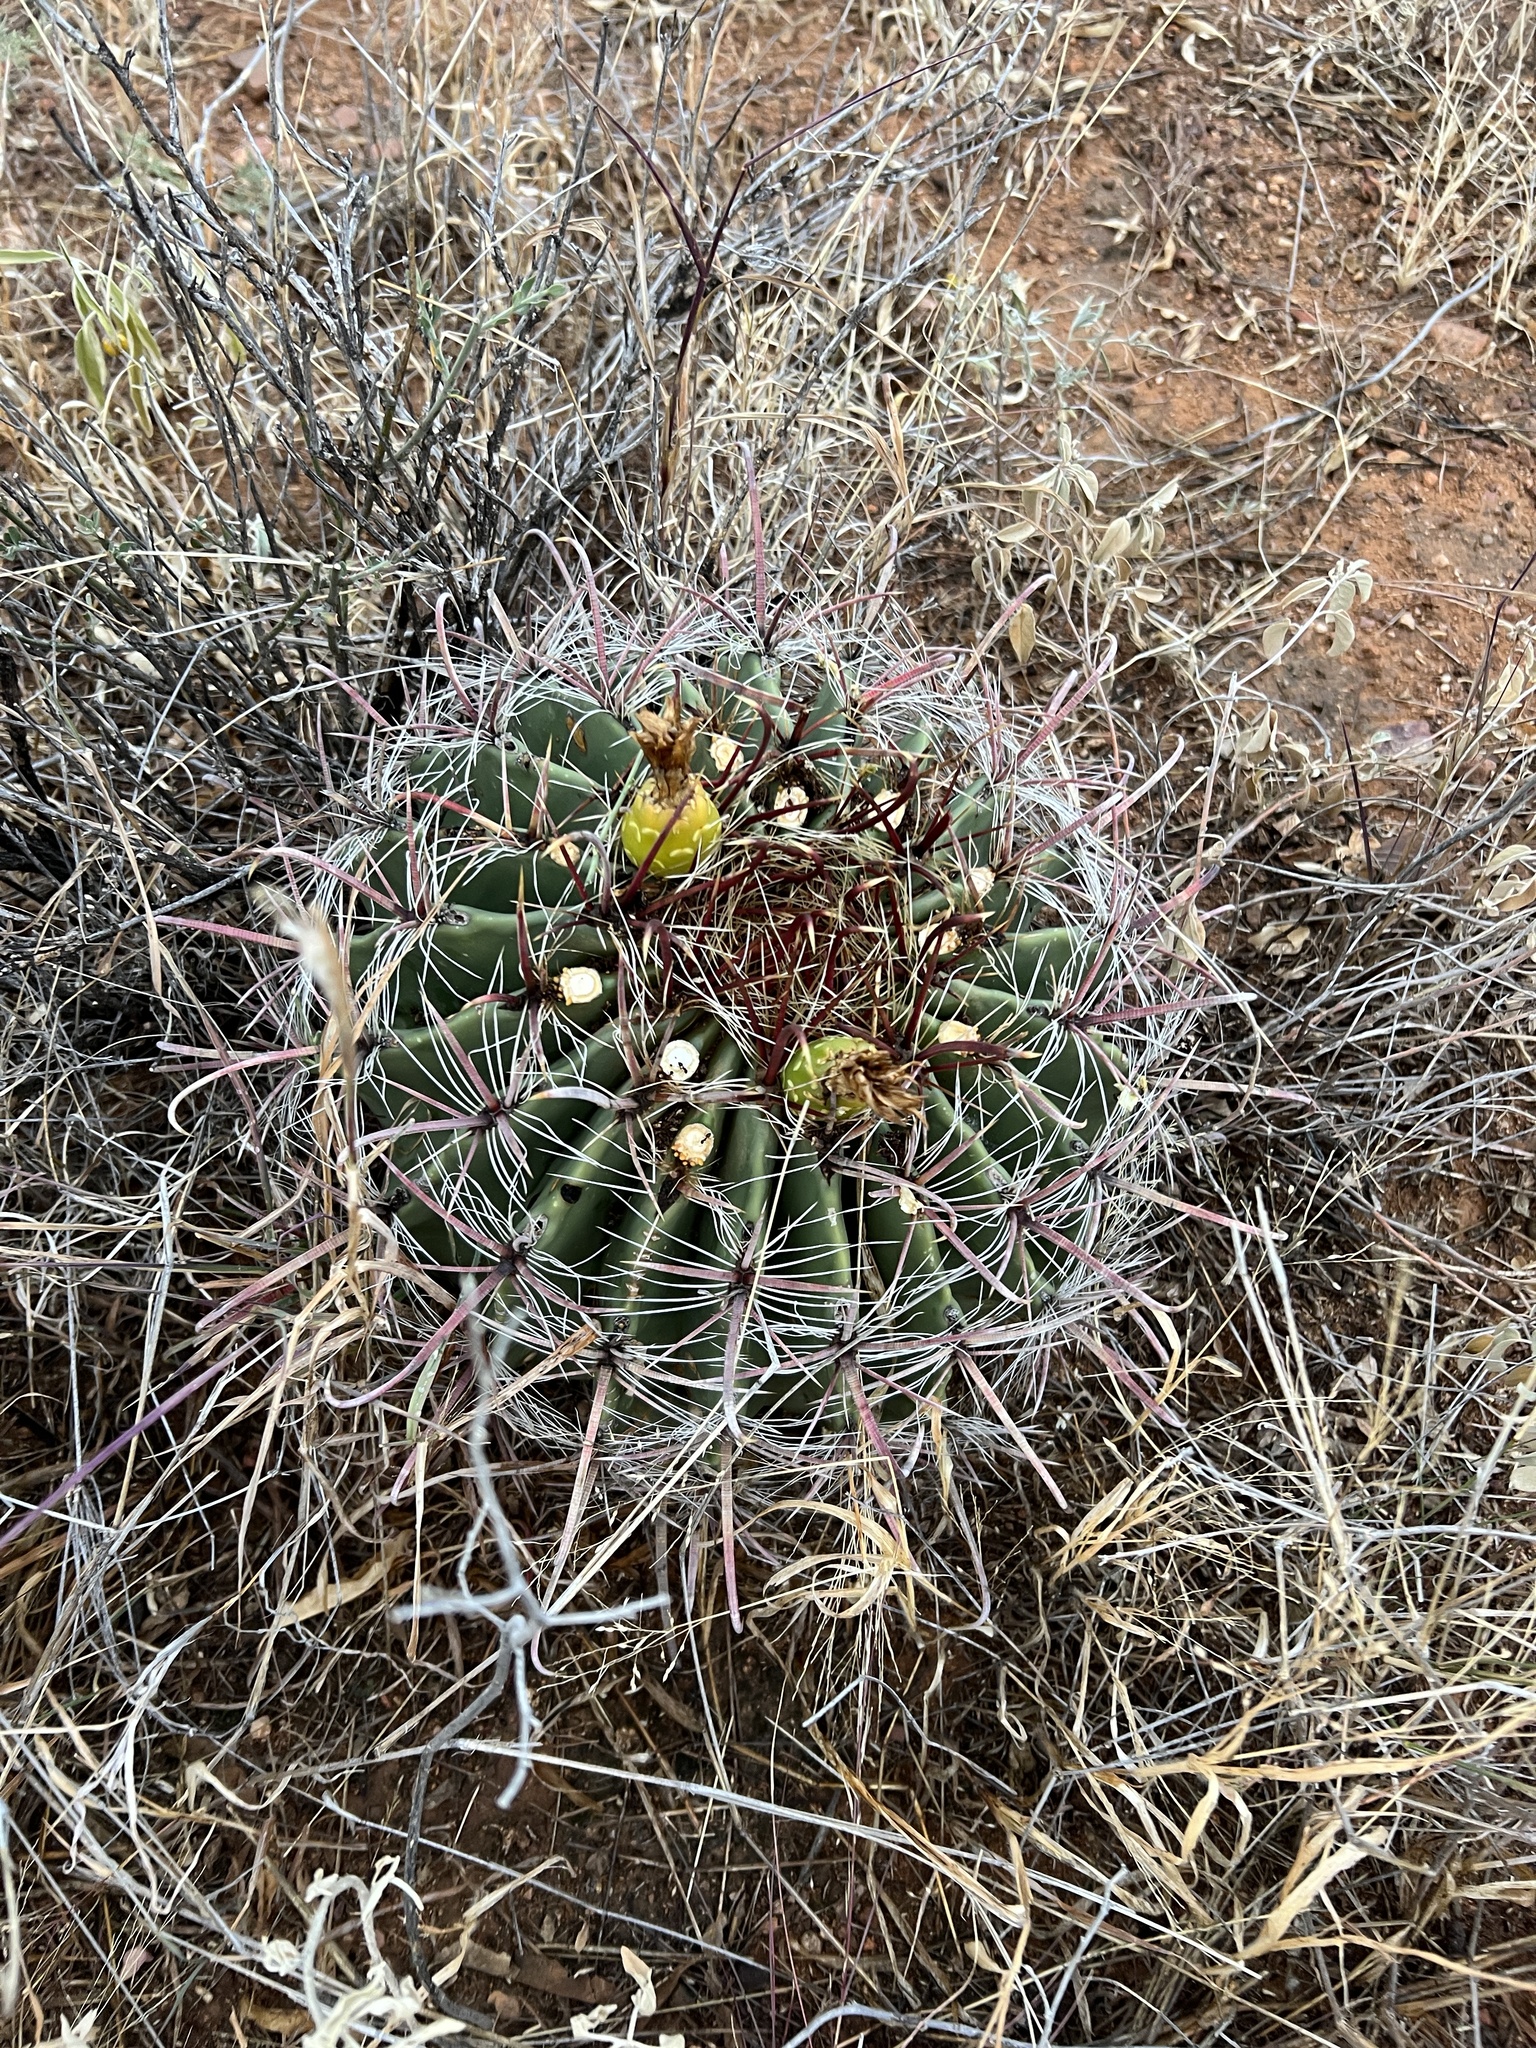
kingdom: Plantae
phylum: Tracheophyta
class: Magnoliopsida
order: Caryophyllales
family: Cactaceae
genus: Ferocactus
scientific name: Ferocactus wislizeni
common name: Candy barrel cactus
